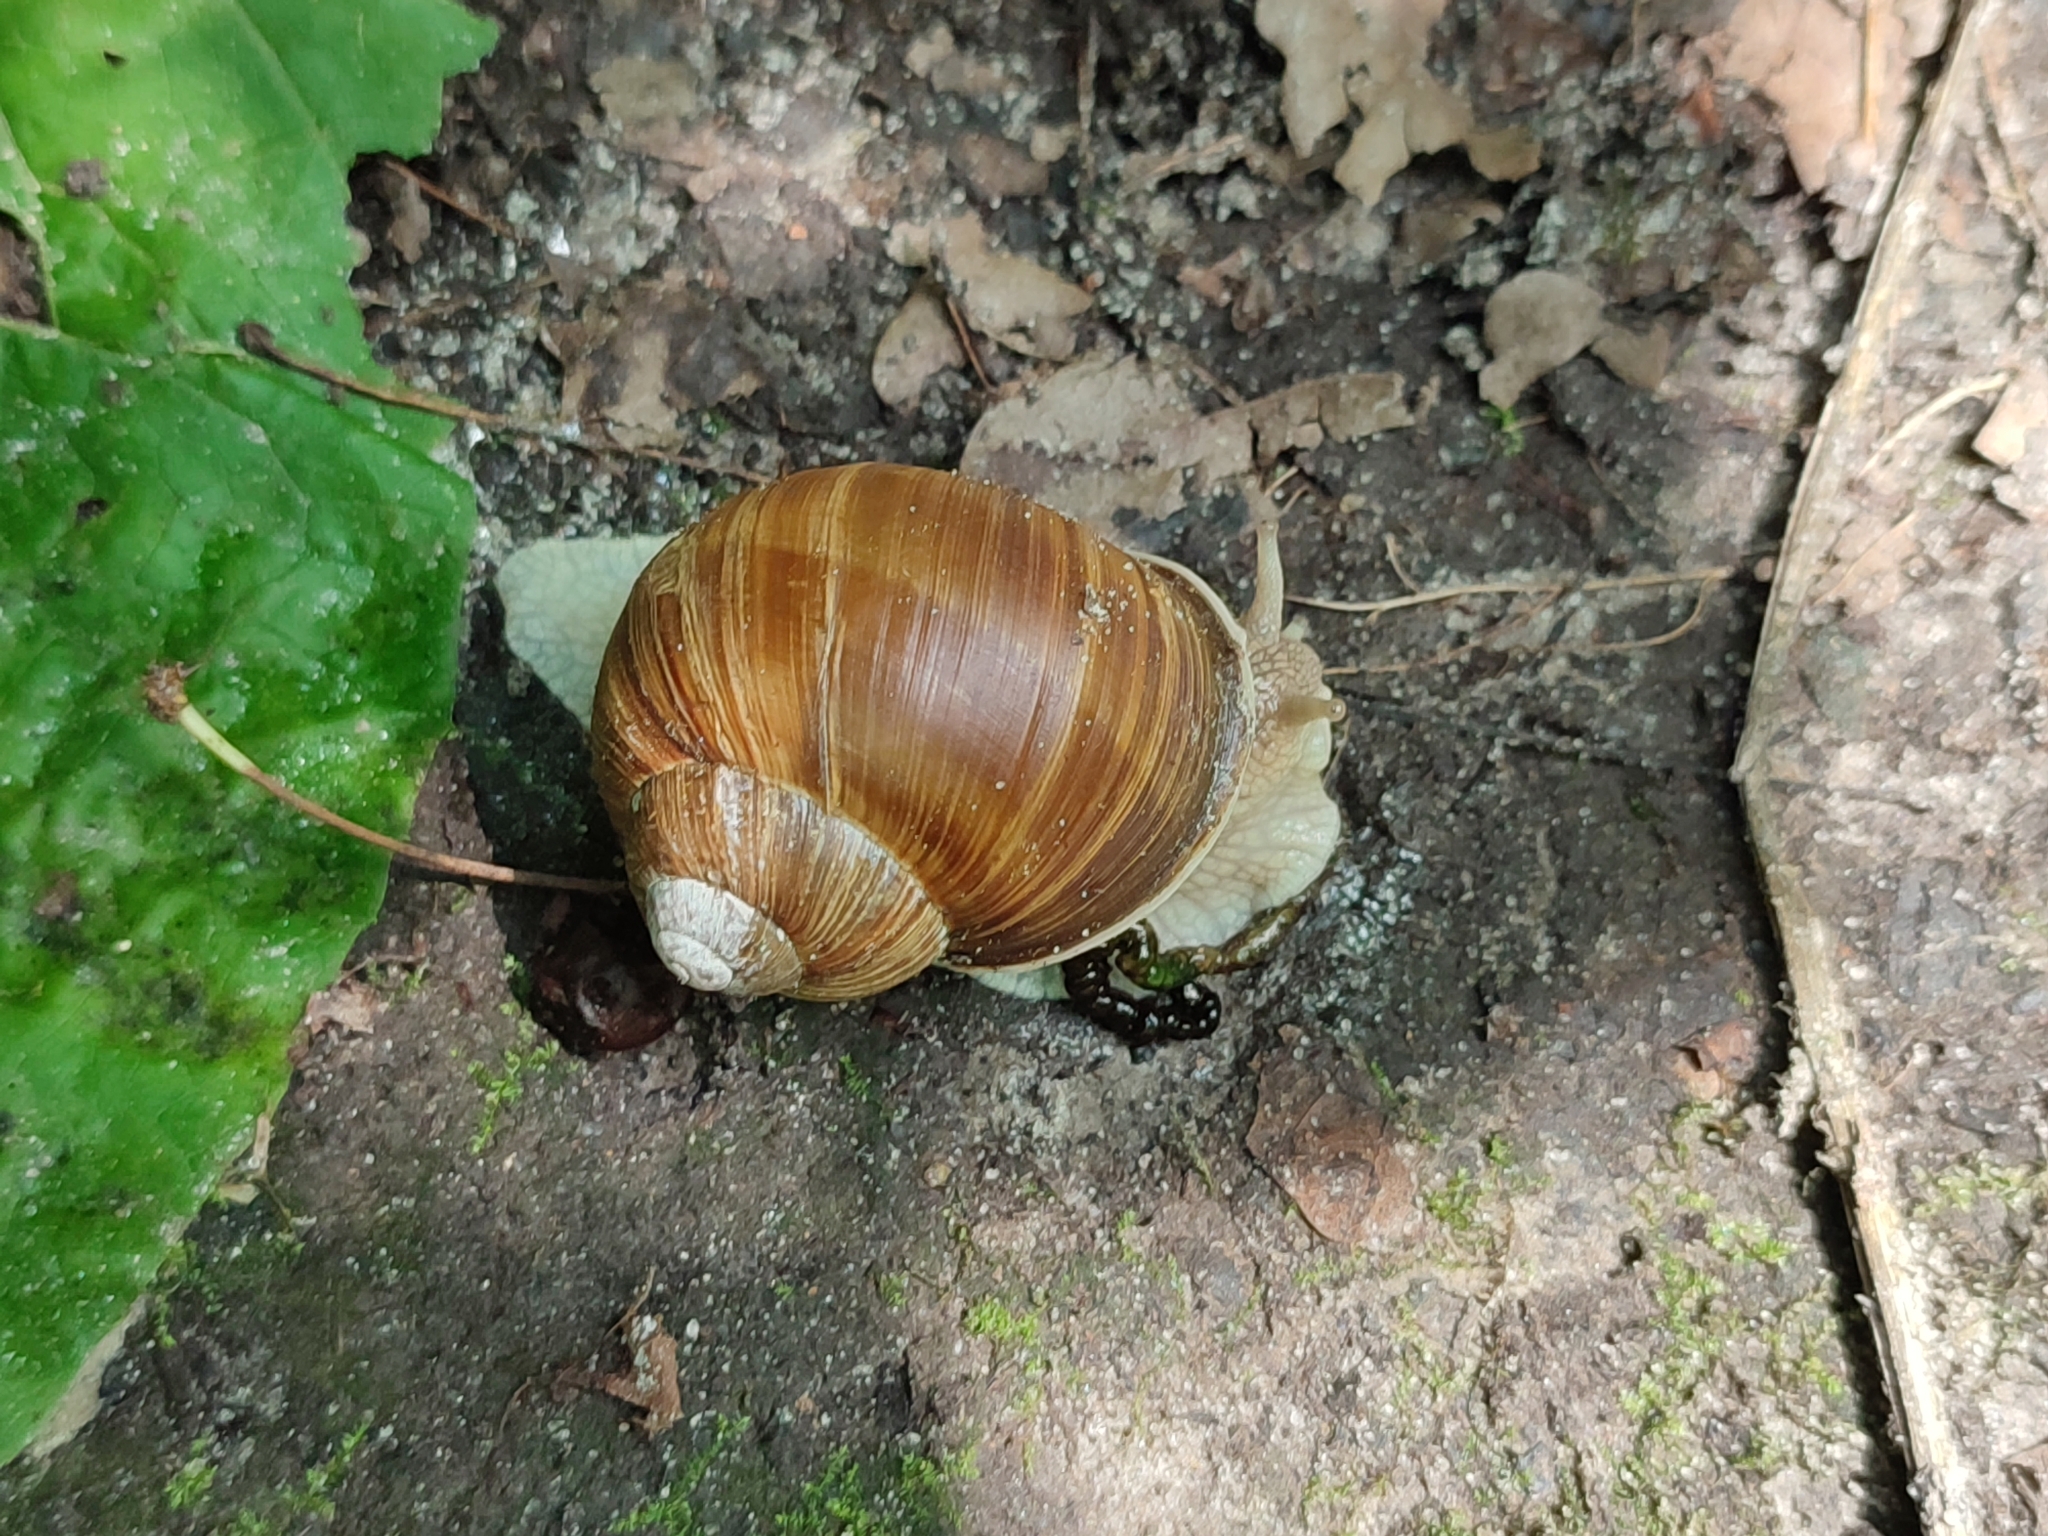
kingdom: Animalia
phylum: Mollusca
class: Gastropoda
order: Stylommatophora
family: Helicidae
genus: Helix
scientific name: Helix pomatia
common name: Roman snail
